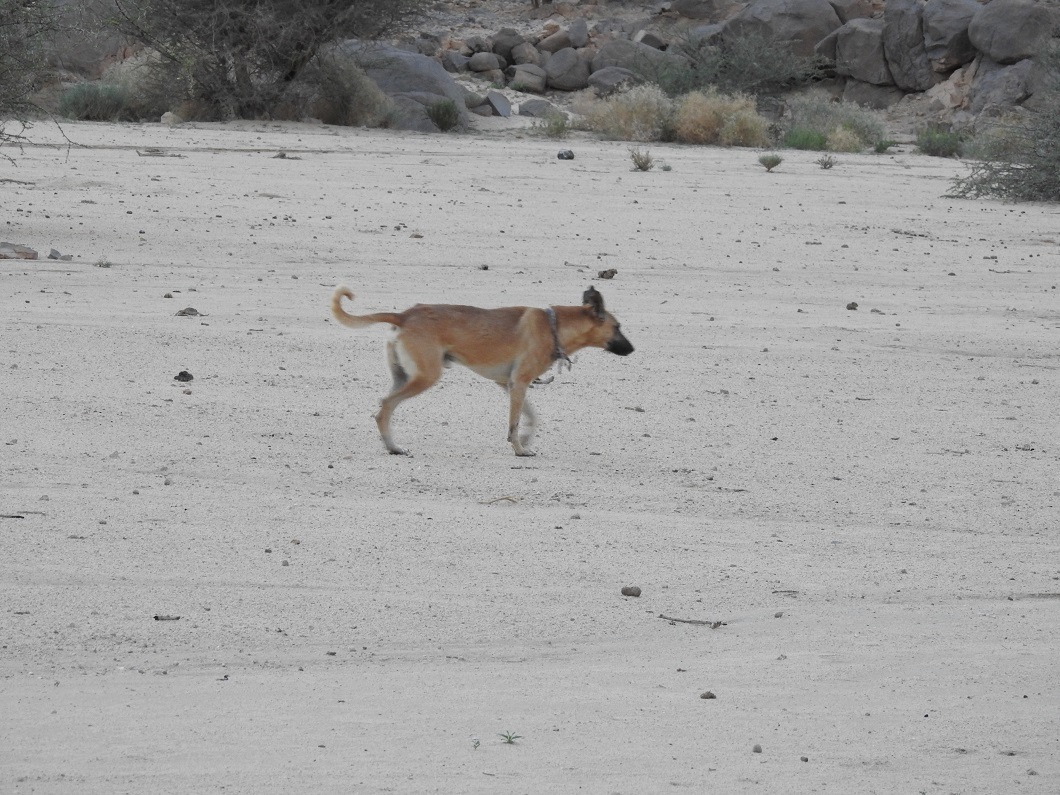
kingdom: Animalia
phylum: Chordata
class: Mammalia
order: Carnivora
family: Canidae
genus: Canis
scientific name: Canis lupus
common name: Gray wolf
